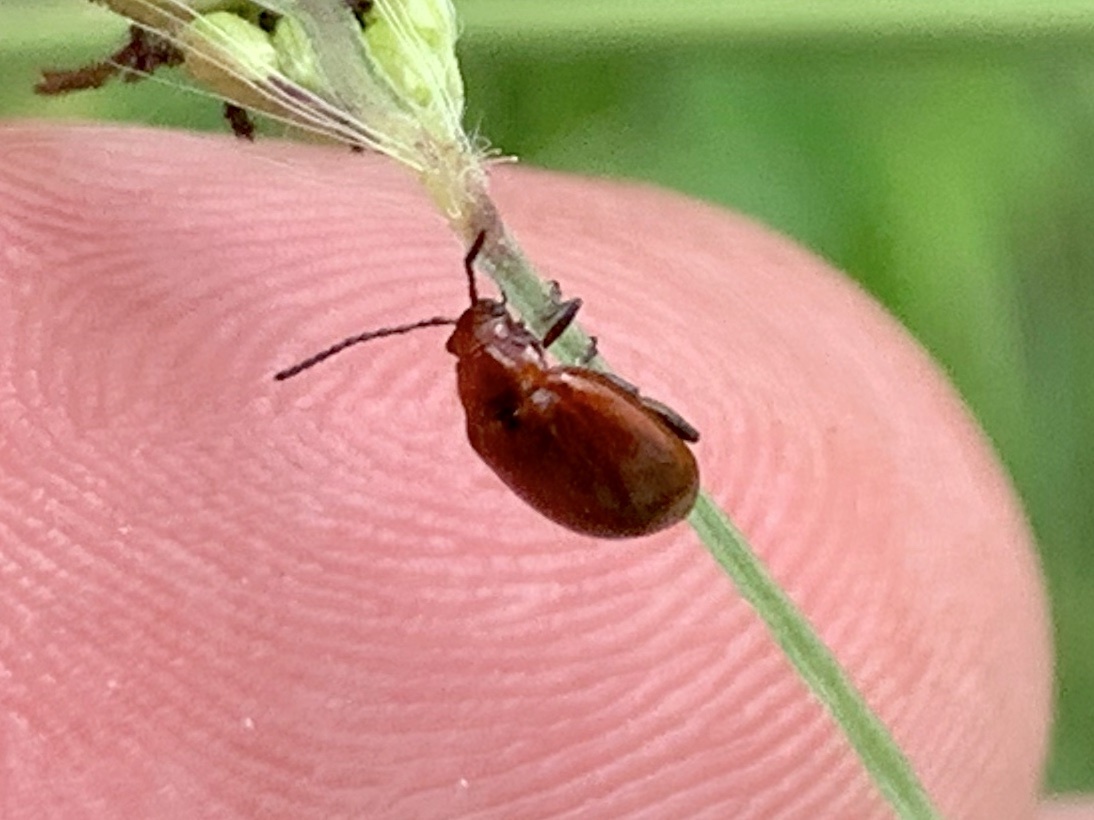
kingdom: Animalia
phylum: Arthropoda
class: Insecta
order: Coleoptera
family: Chrysomelidae
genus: Strabala
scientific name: Strabala rufa
